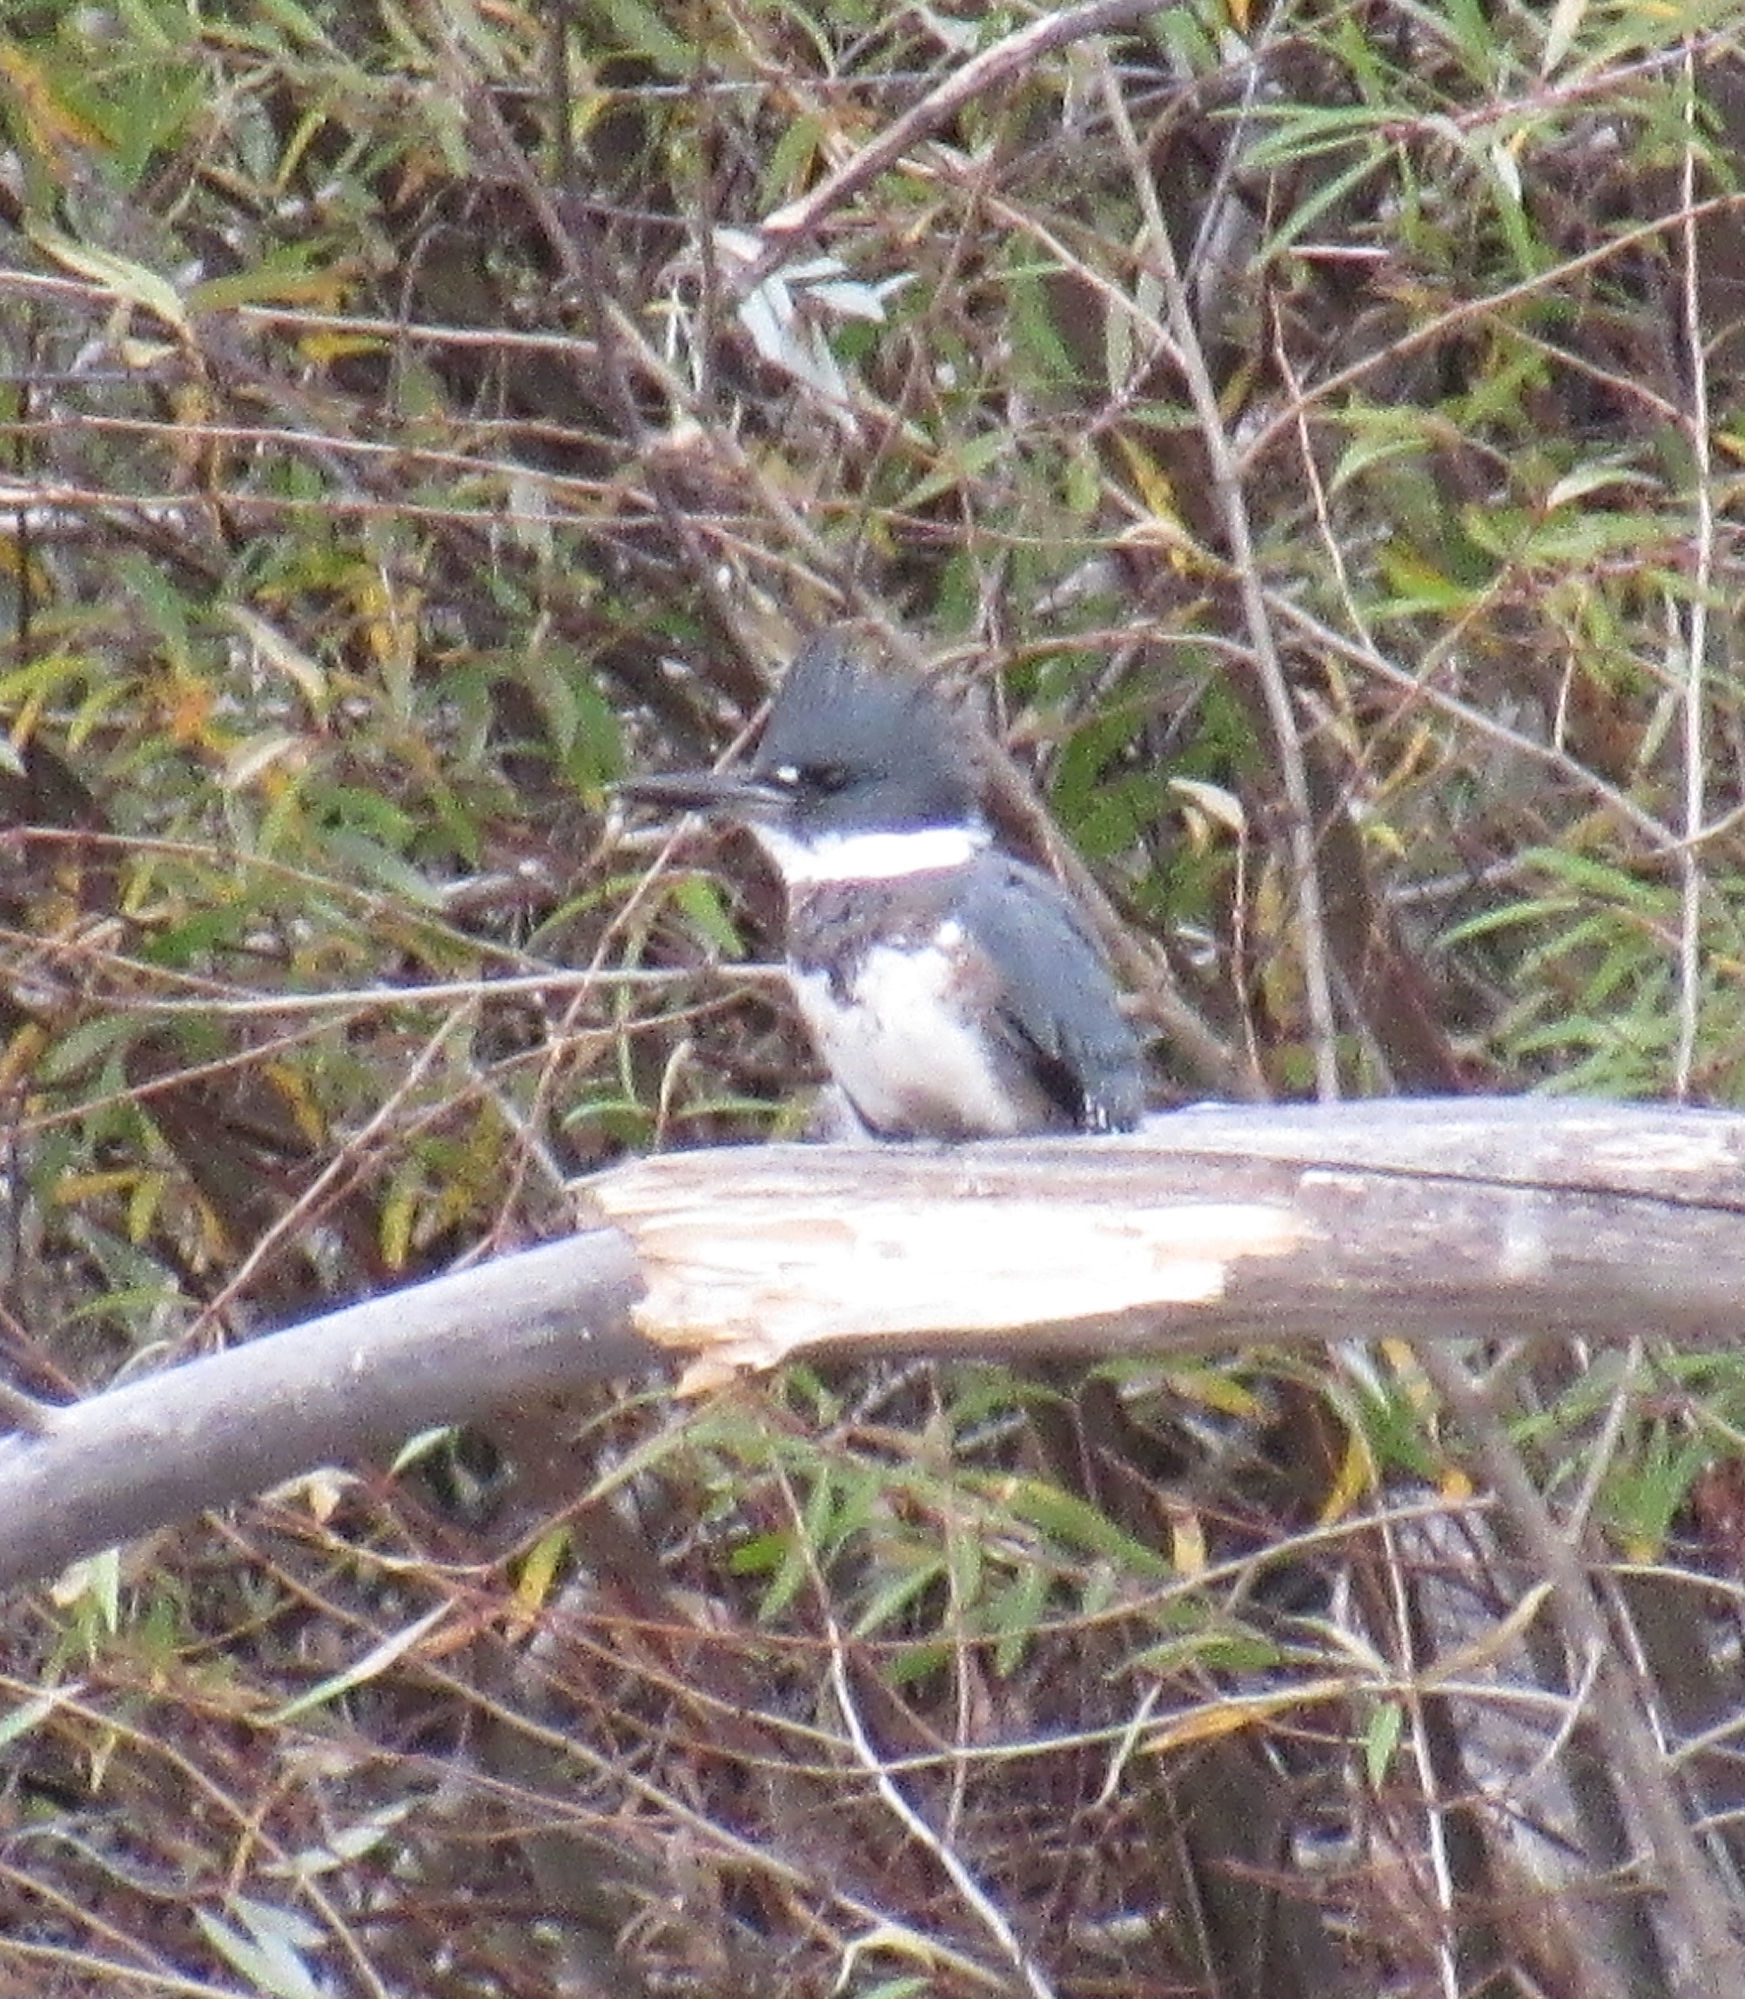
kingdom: Animalia
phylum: Chordata
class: Aves
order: Coraciiformes
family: Alcedinidae
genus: Megaceryle
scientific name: Megaceryle alcyon
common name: Belted kingfisher
